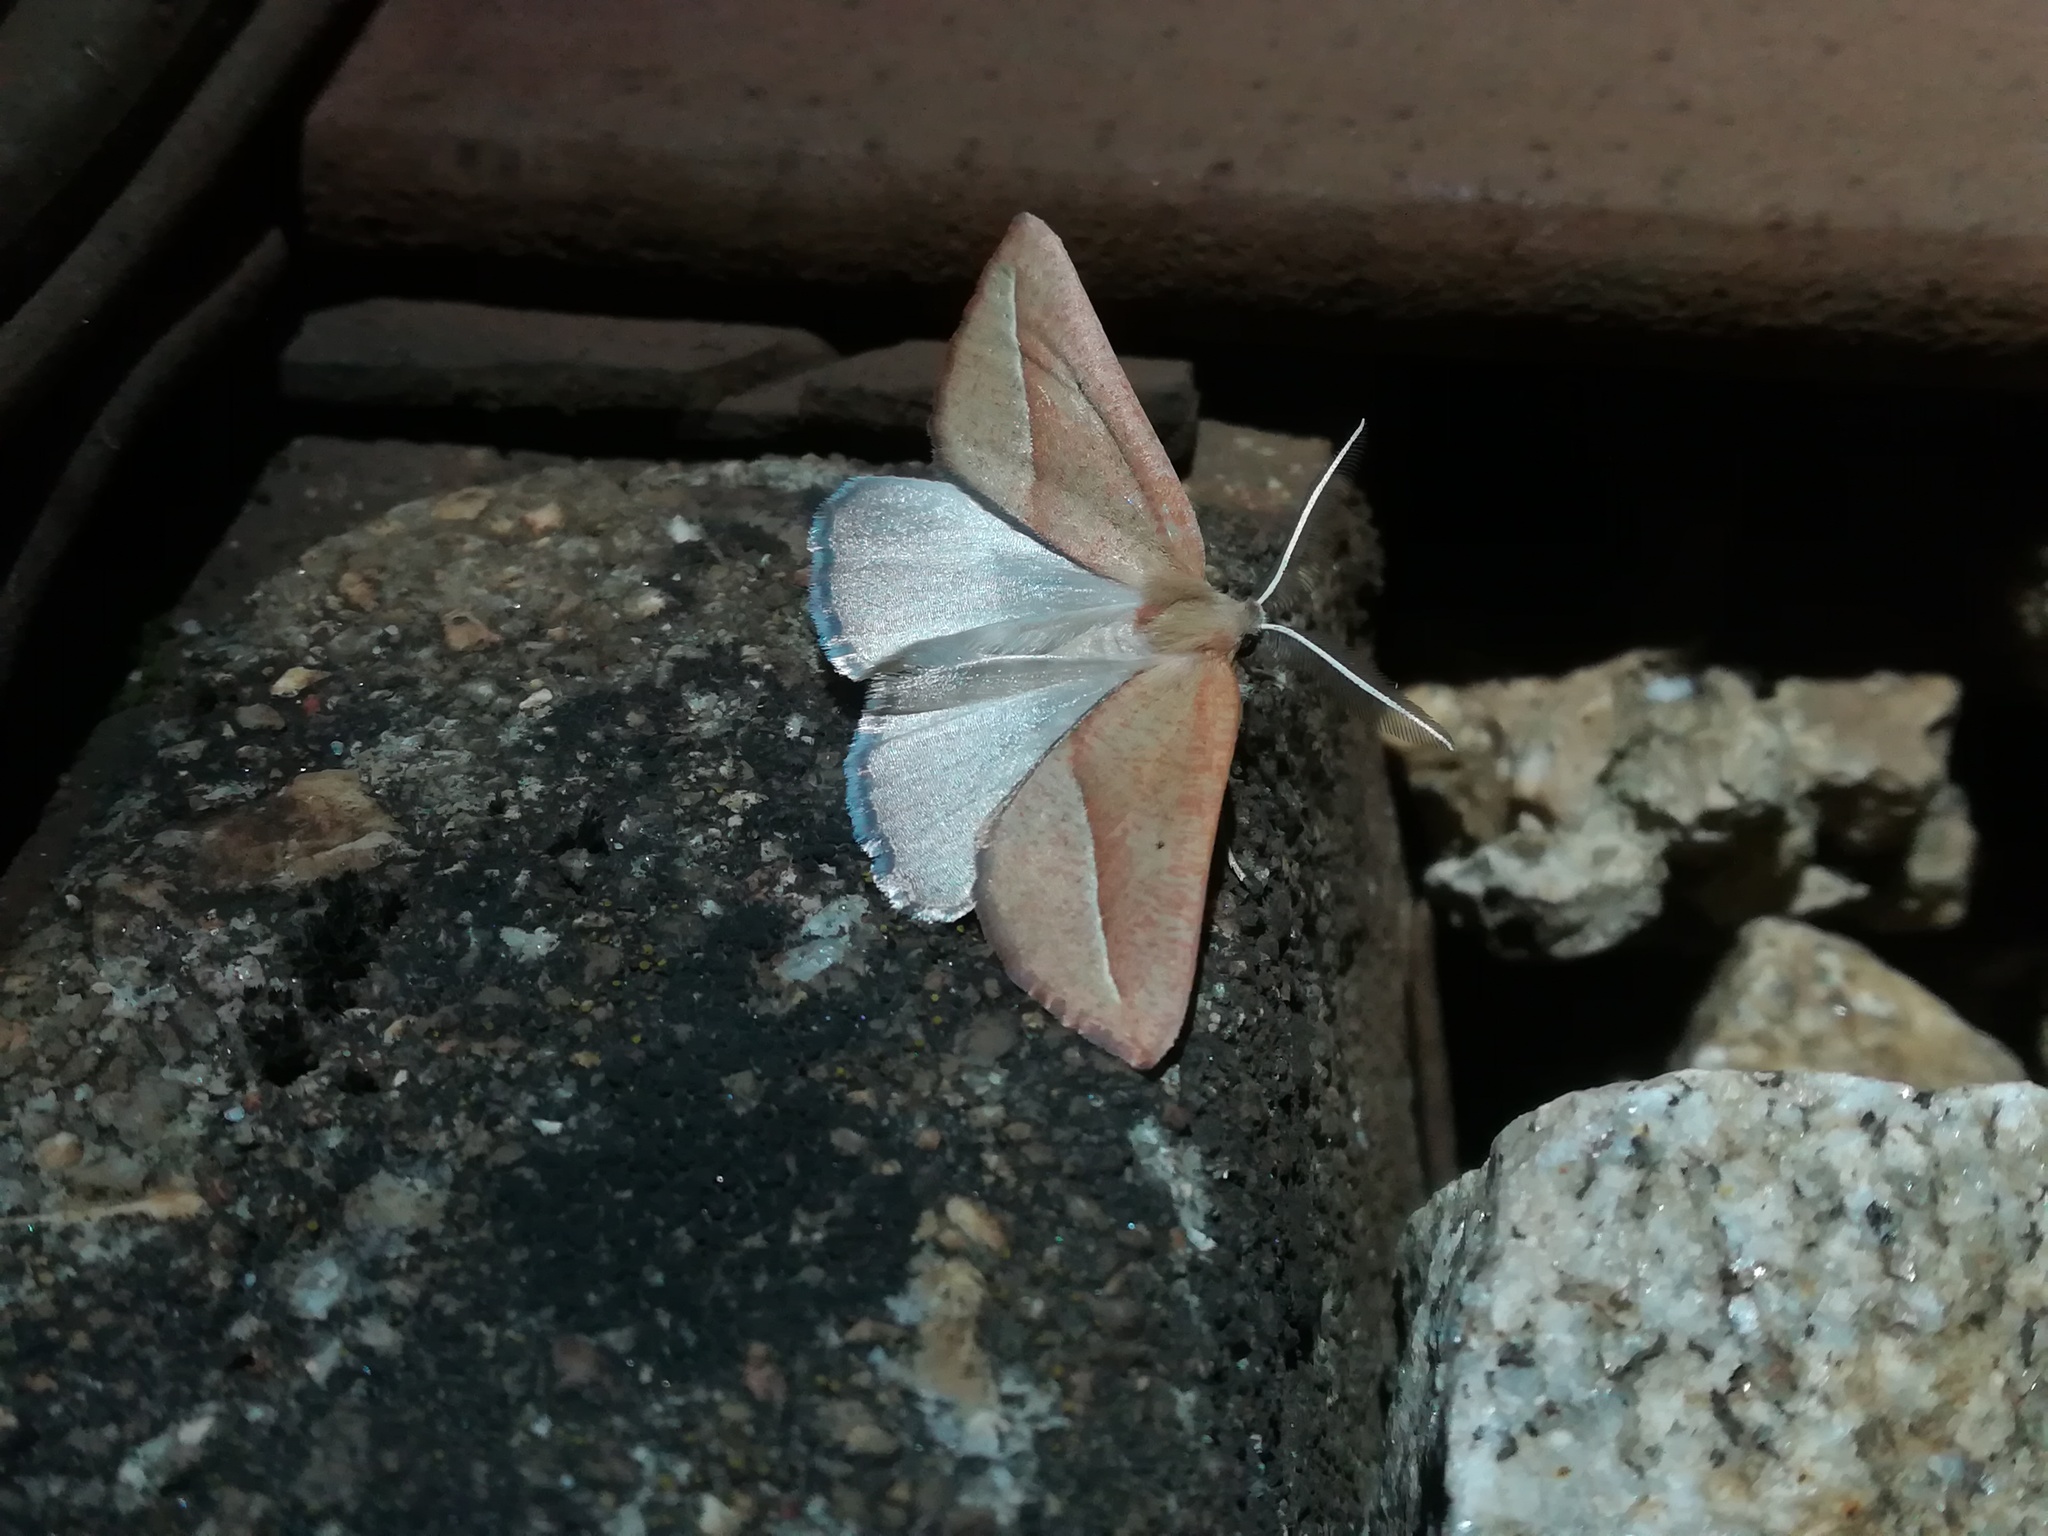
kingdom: Animalia
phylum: Arthropoda
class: Insecta
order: Lepidoptera
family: Geometridae
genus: Compsoptera
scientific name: Compsoptera opacaria
